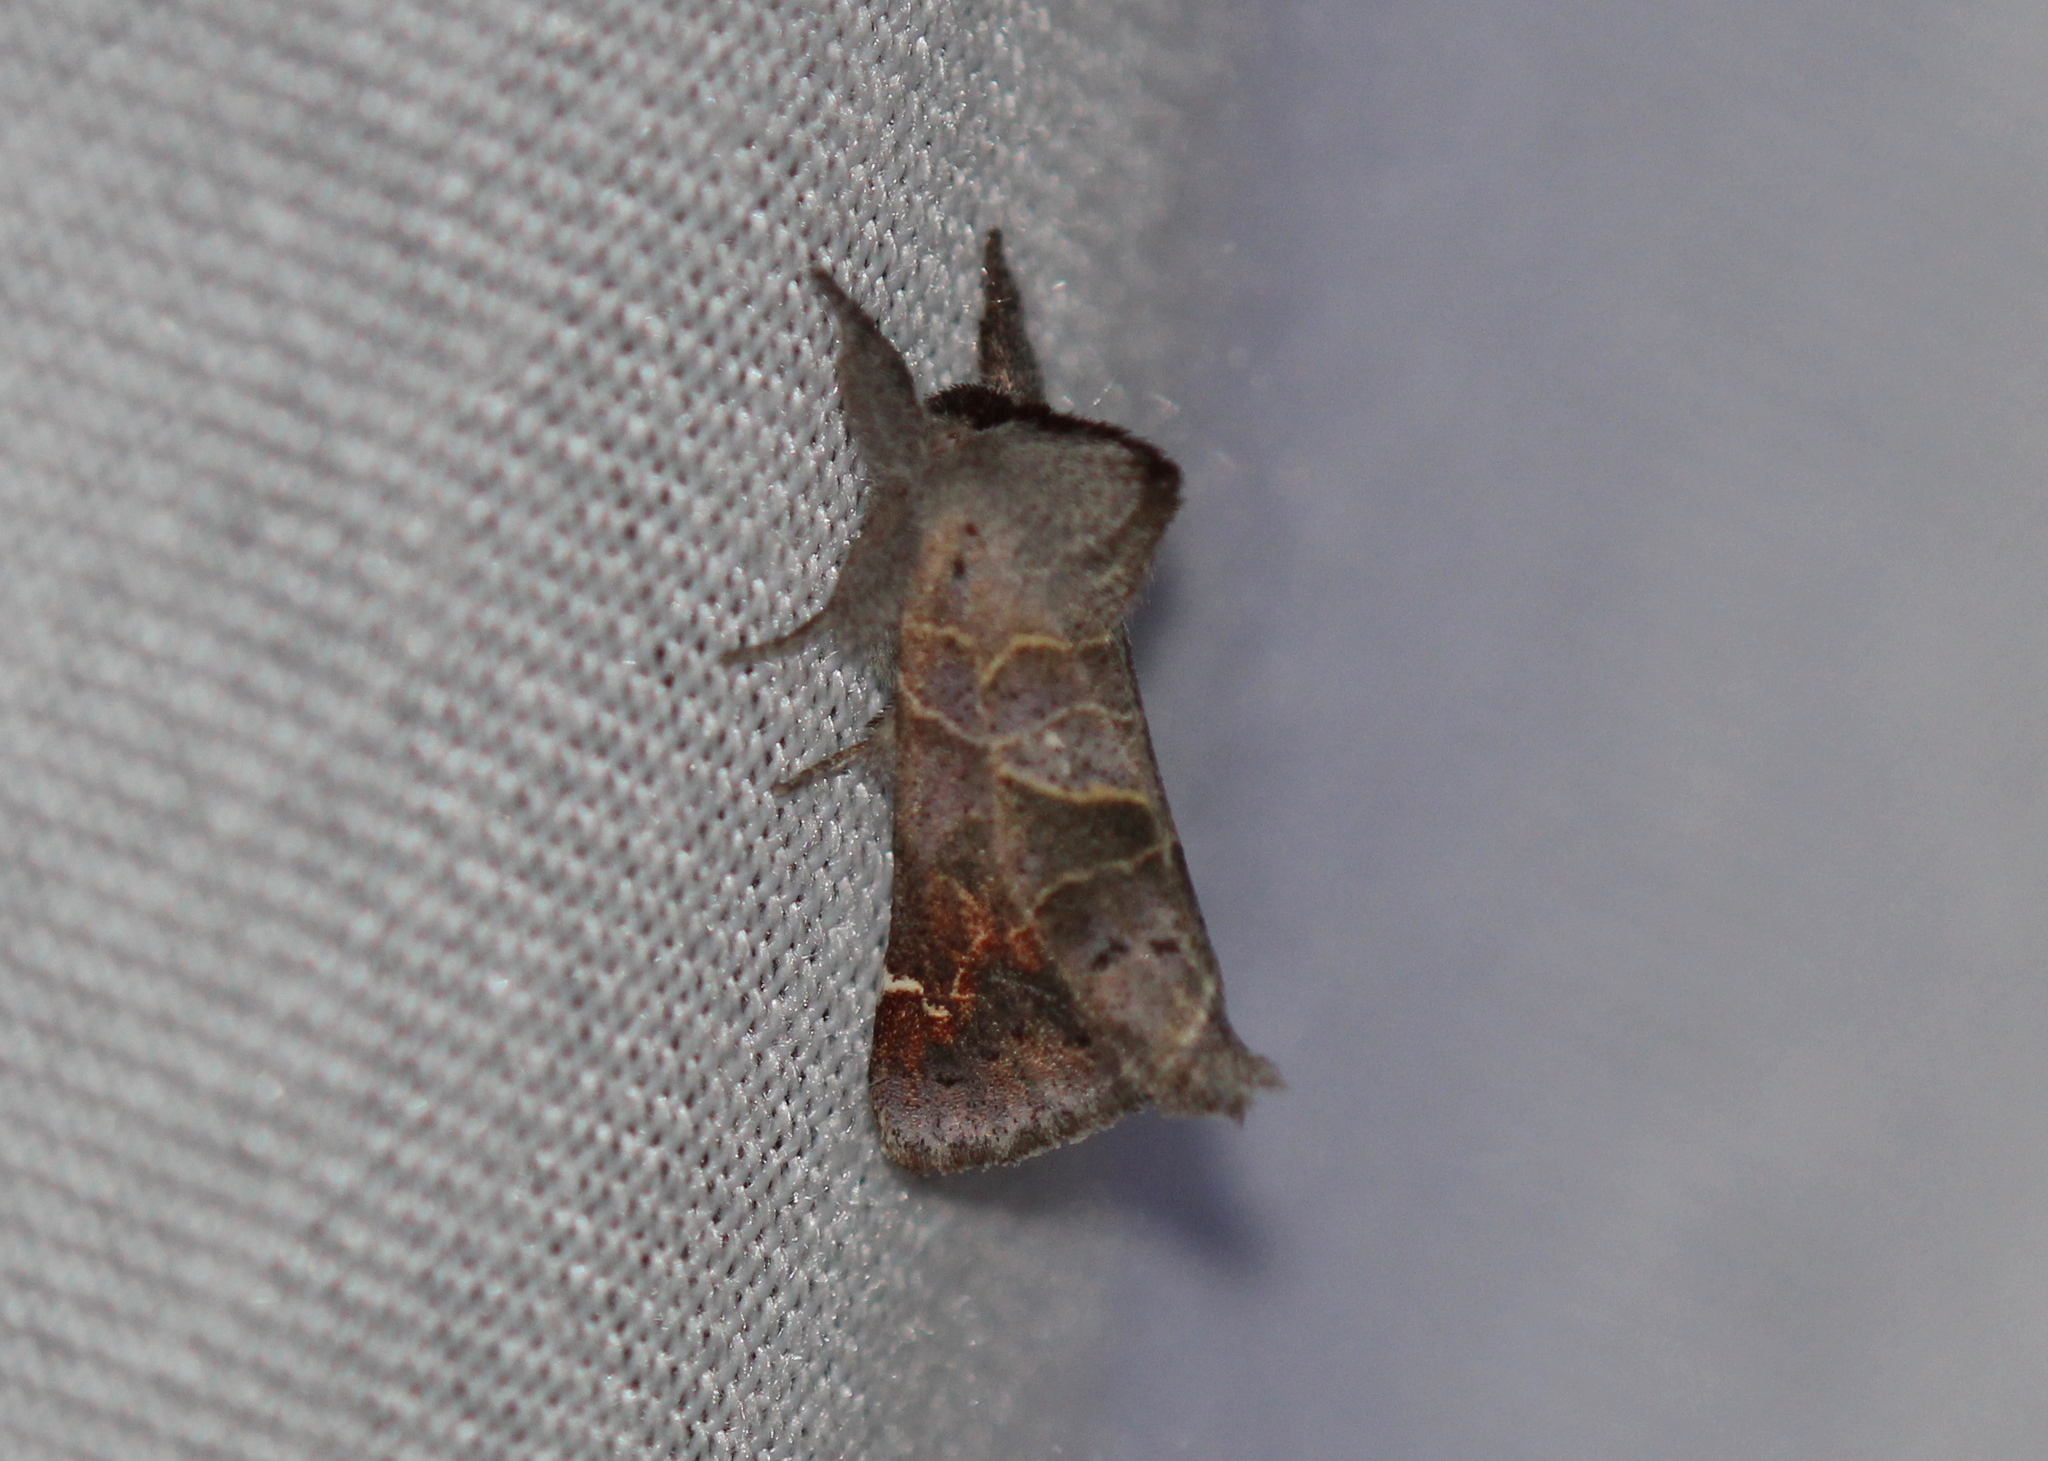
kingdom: Animalia
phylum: Arthropoda
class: Insecta
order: Lepidoptera
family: Notodontidae
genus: Clostera
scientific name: Clostera apicalis
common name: Apical prominent
